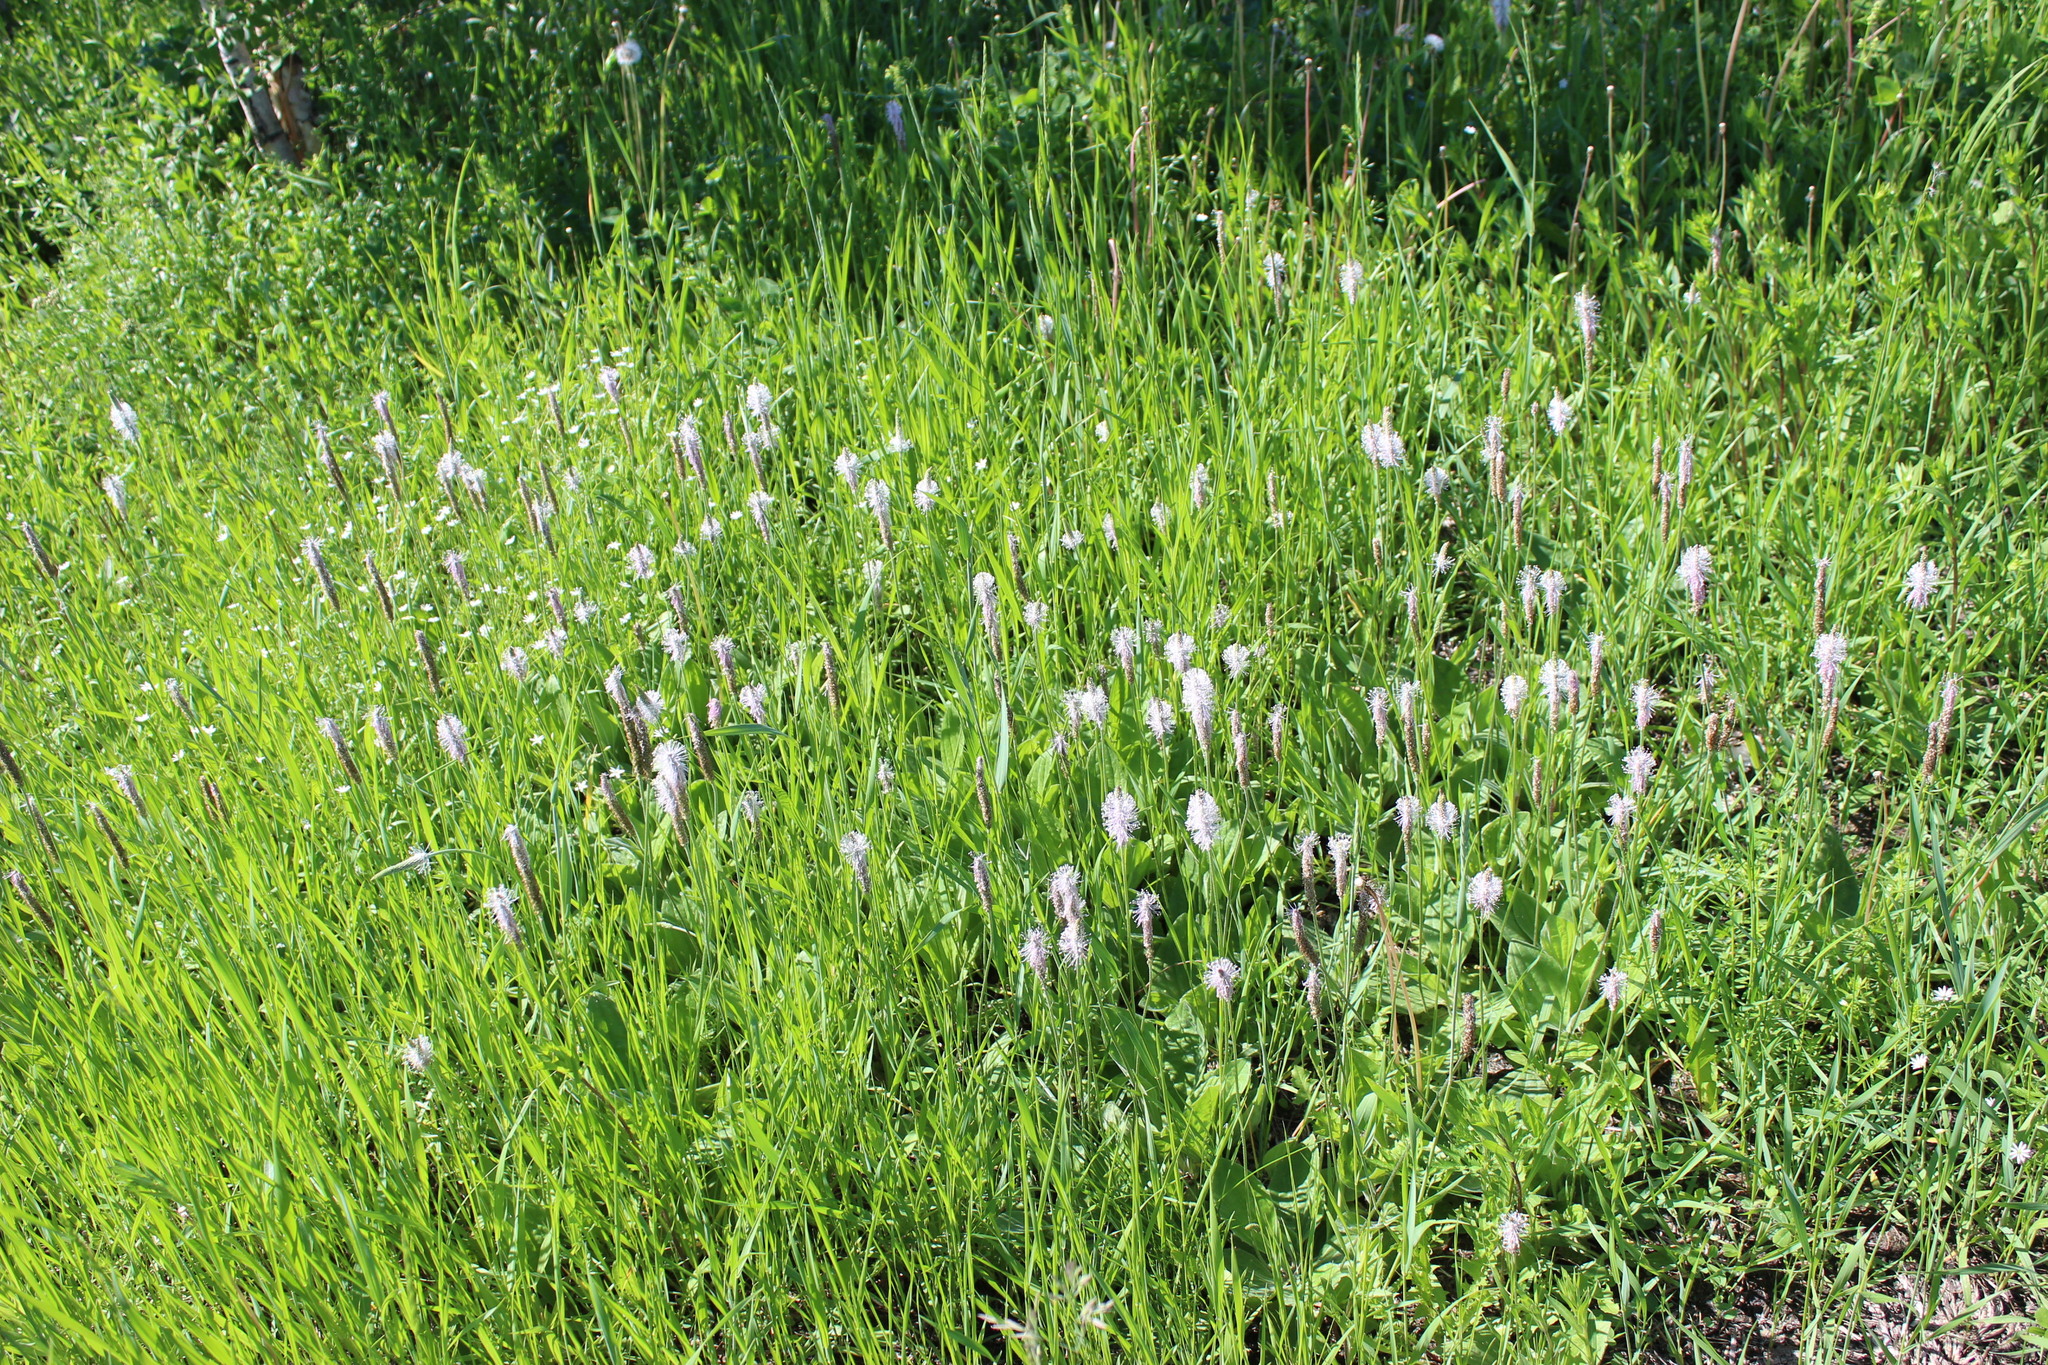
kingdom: Plantae
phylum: Tracheophyta
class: Magnoliopsida
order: Lamiales
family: Plantaginaceae
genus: Plantago
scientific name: Plantago media
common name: Hoary plantain
